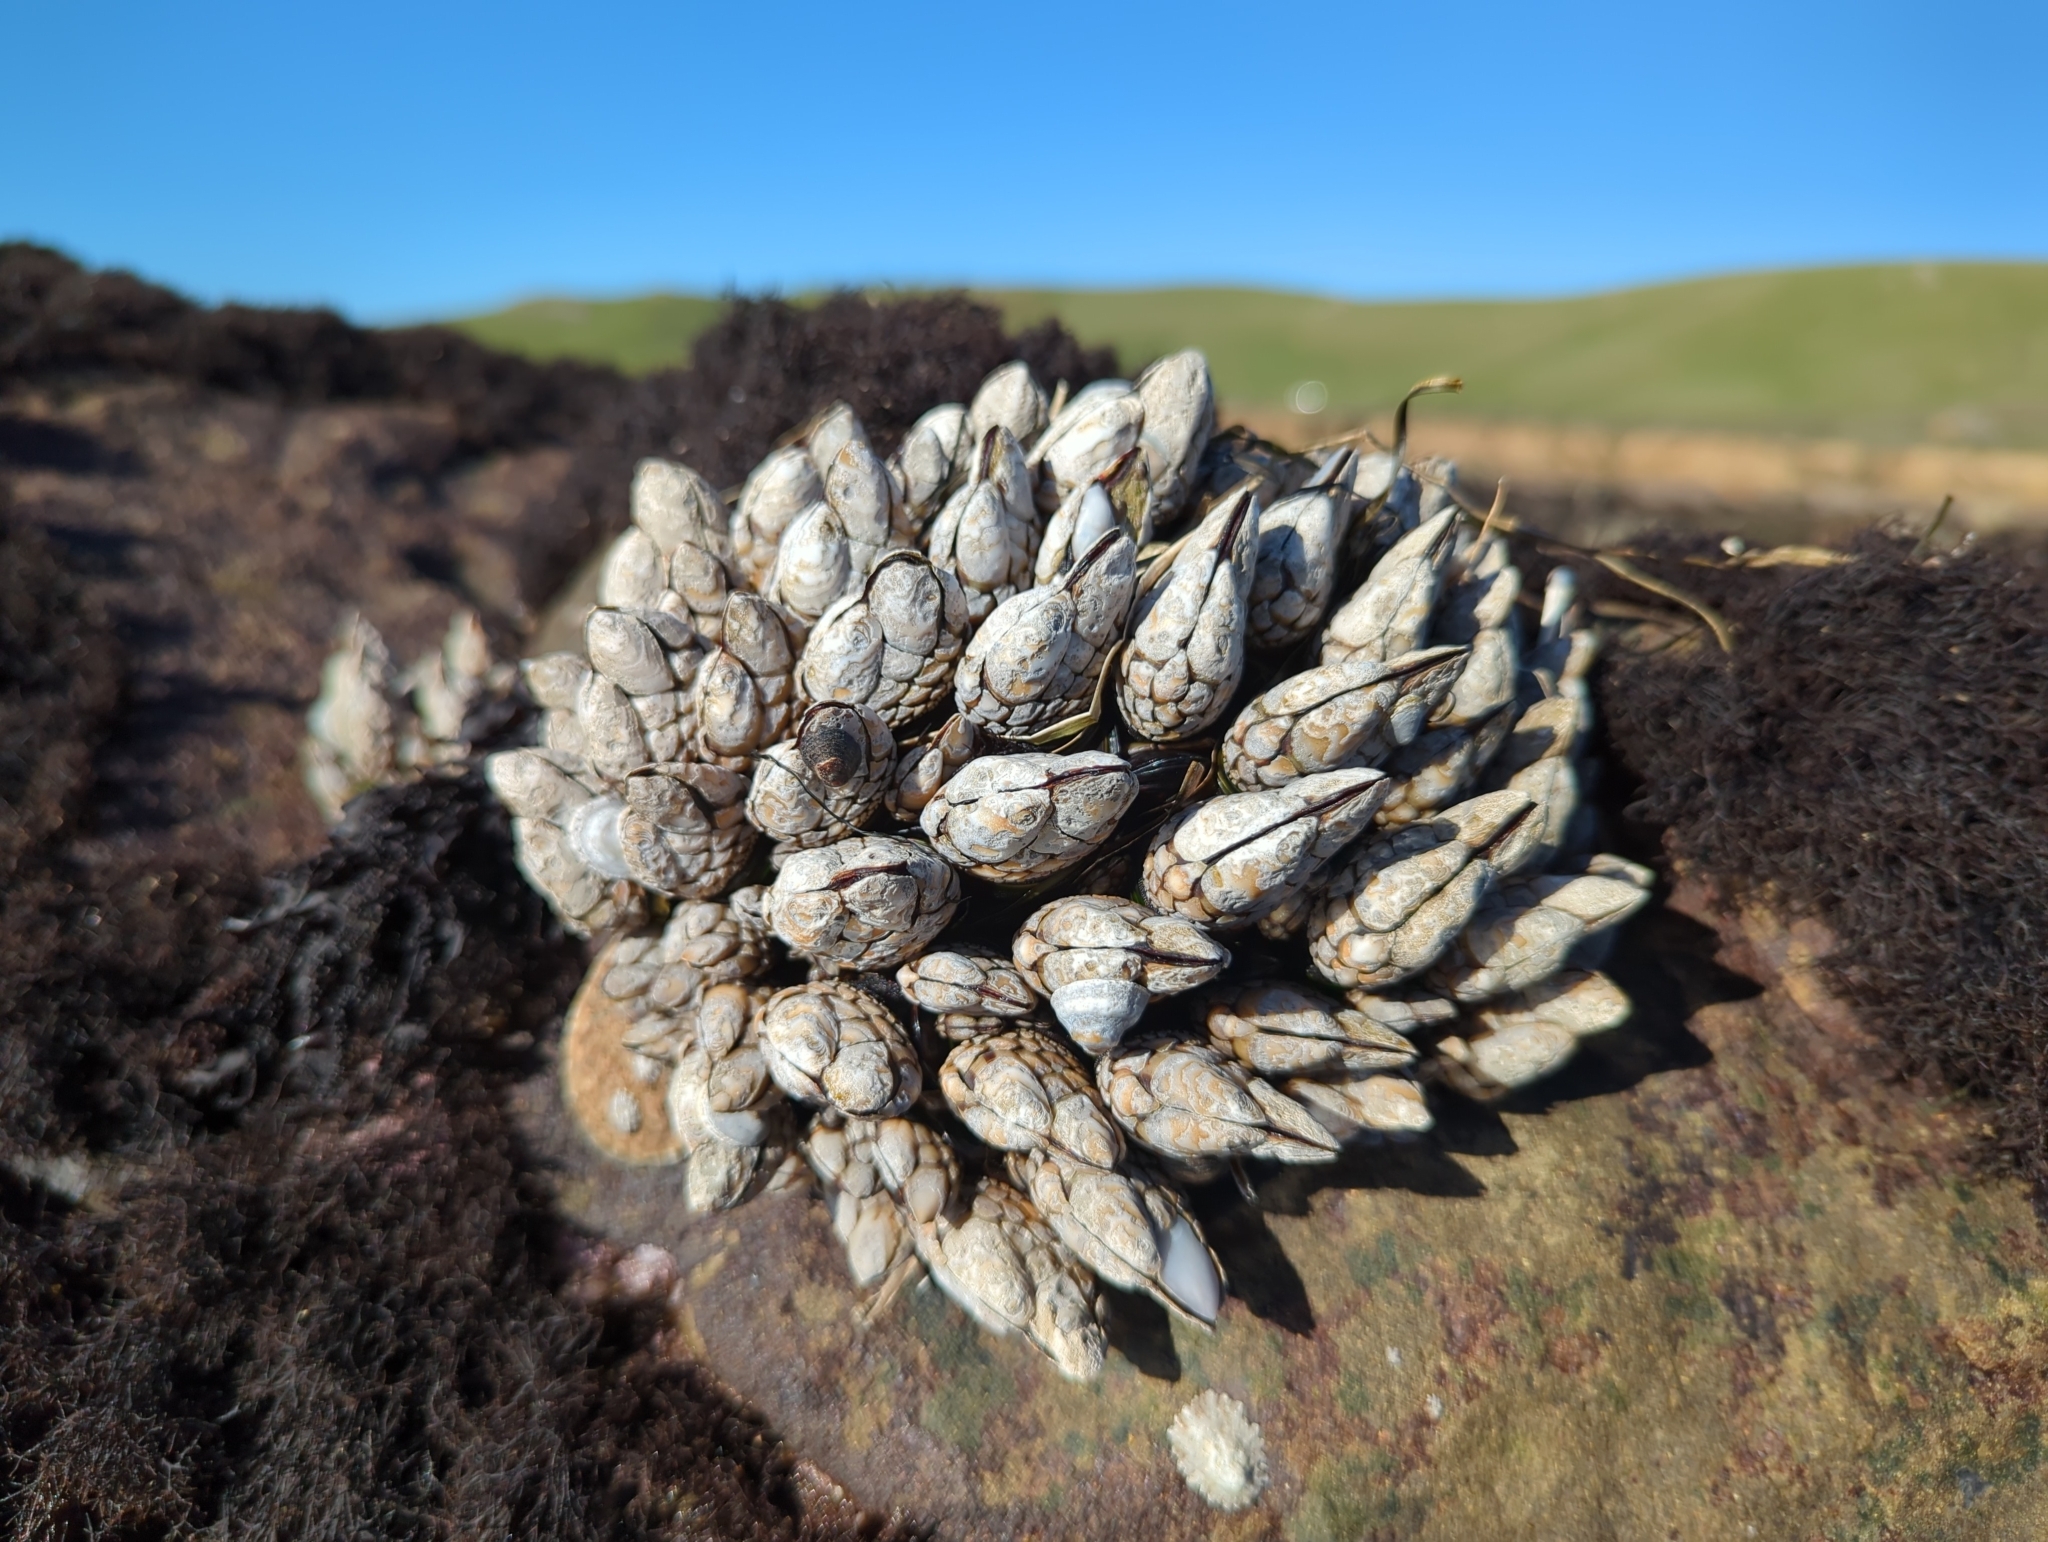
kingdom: Animalia
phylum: Arthropoda
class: Maxillopoda
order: Pedunculata
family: Pollicipedidae
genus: Pollicipes
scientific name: Pollicipes polymerus
